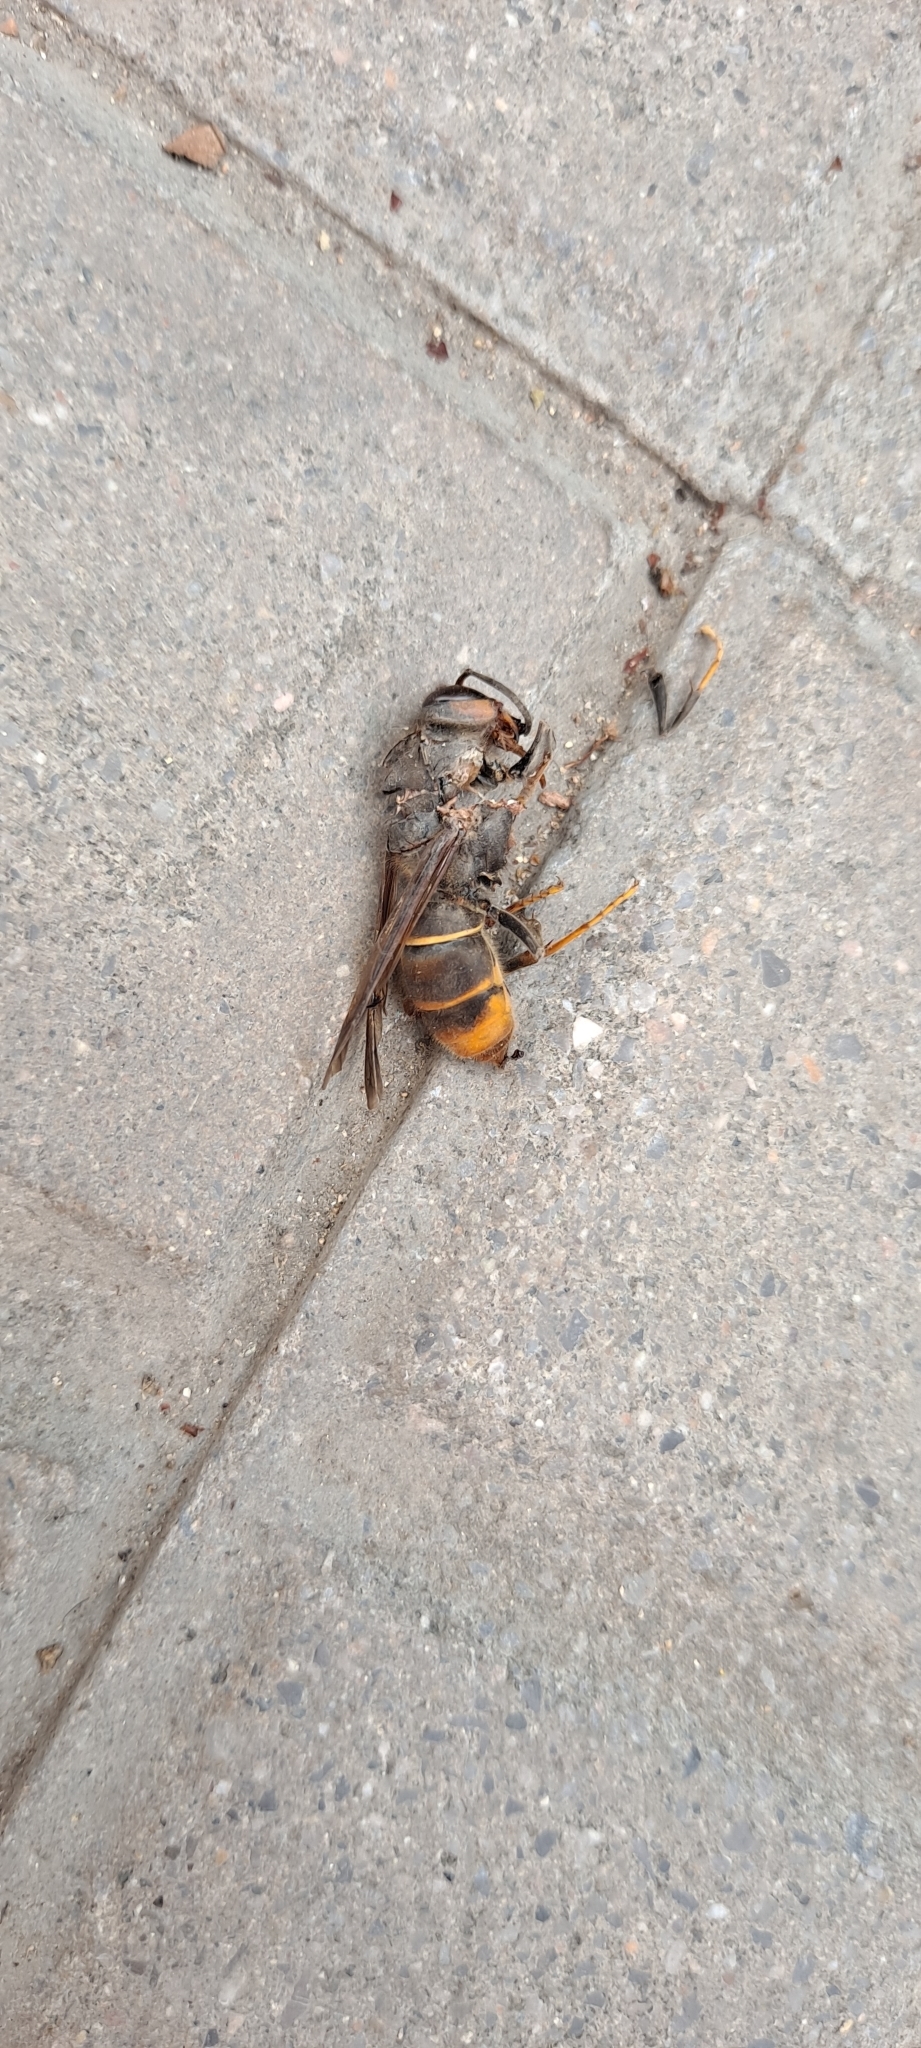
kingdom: Animalia
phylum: Arthropoda
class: Insecta
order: Hymenoptera
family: Vespidae
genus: Vespa
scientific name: Vespa velutina
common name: Asian hornet
